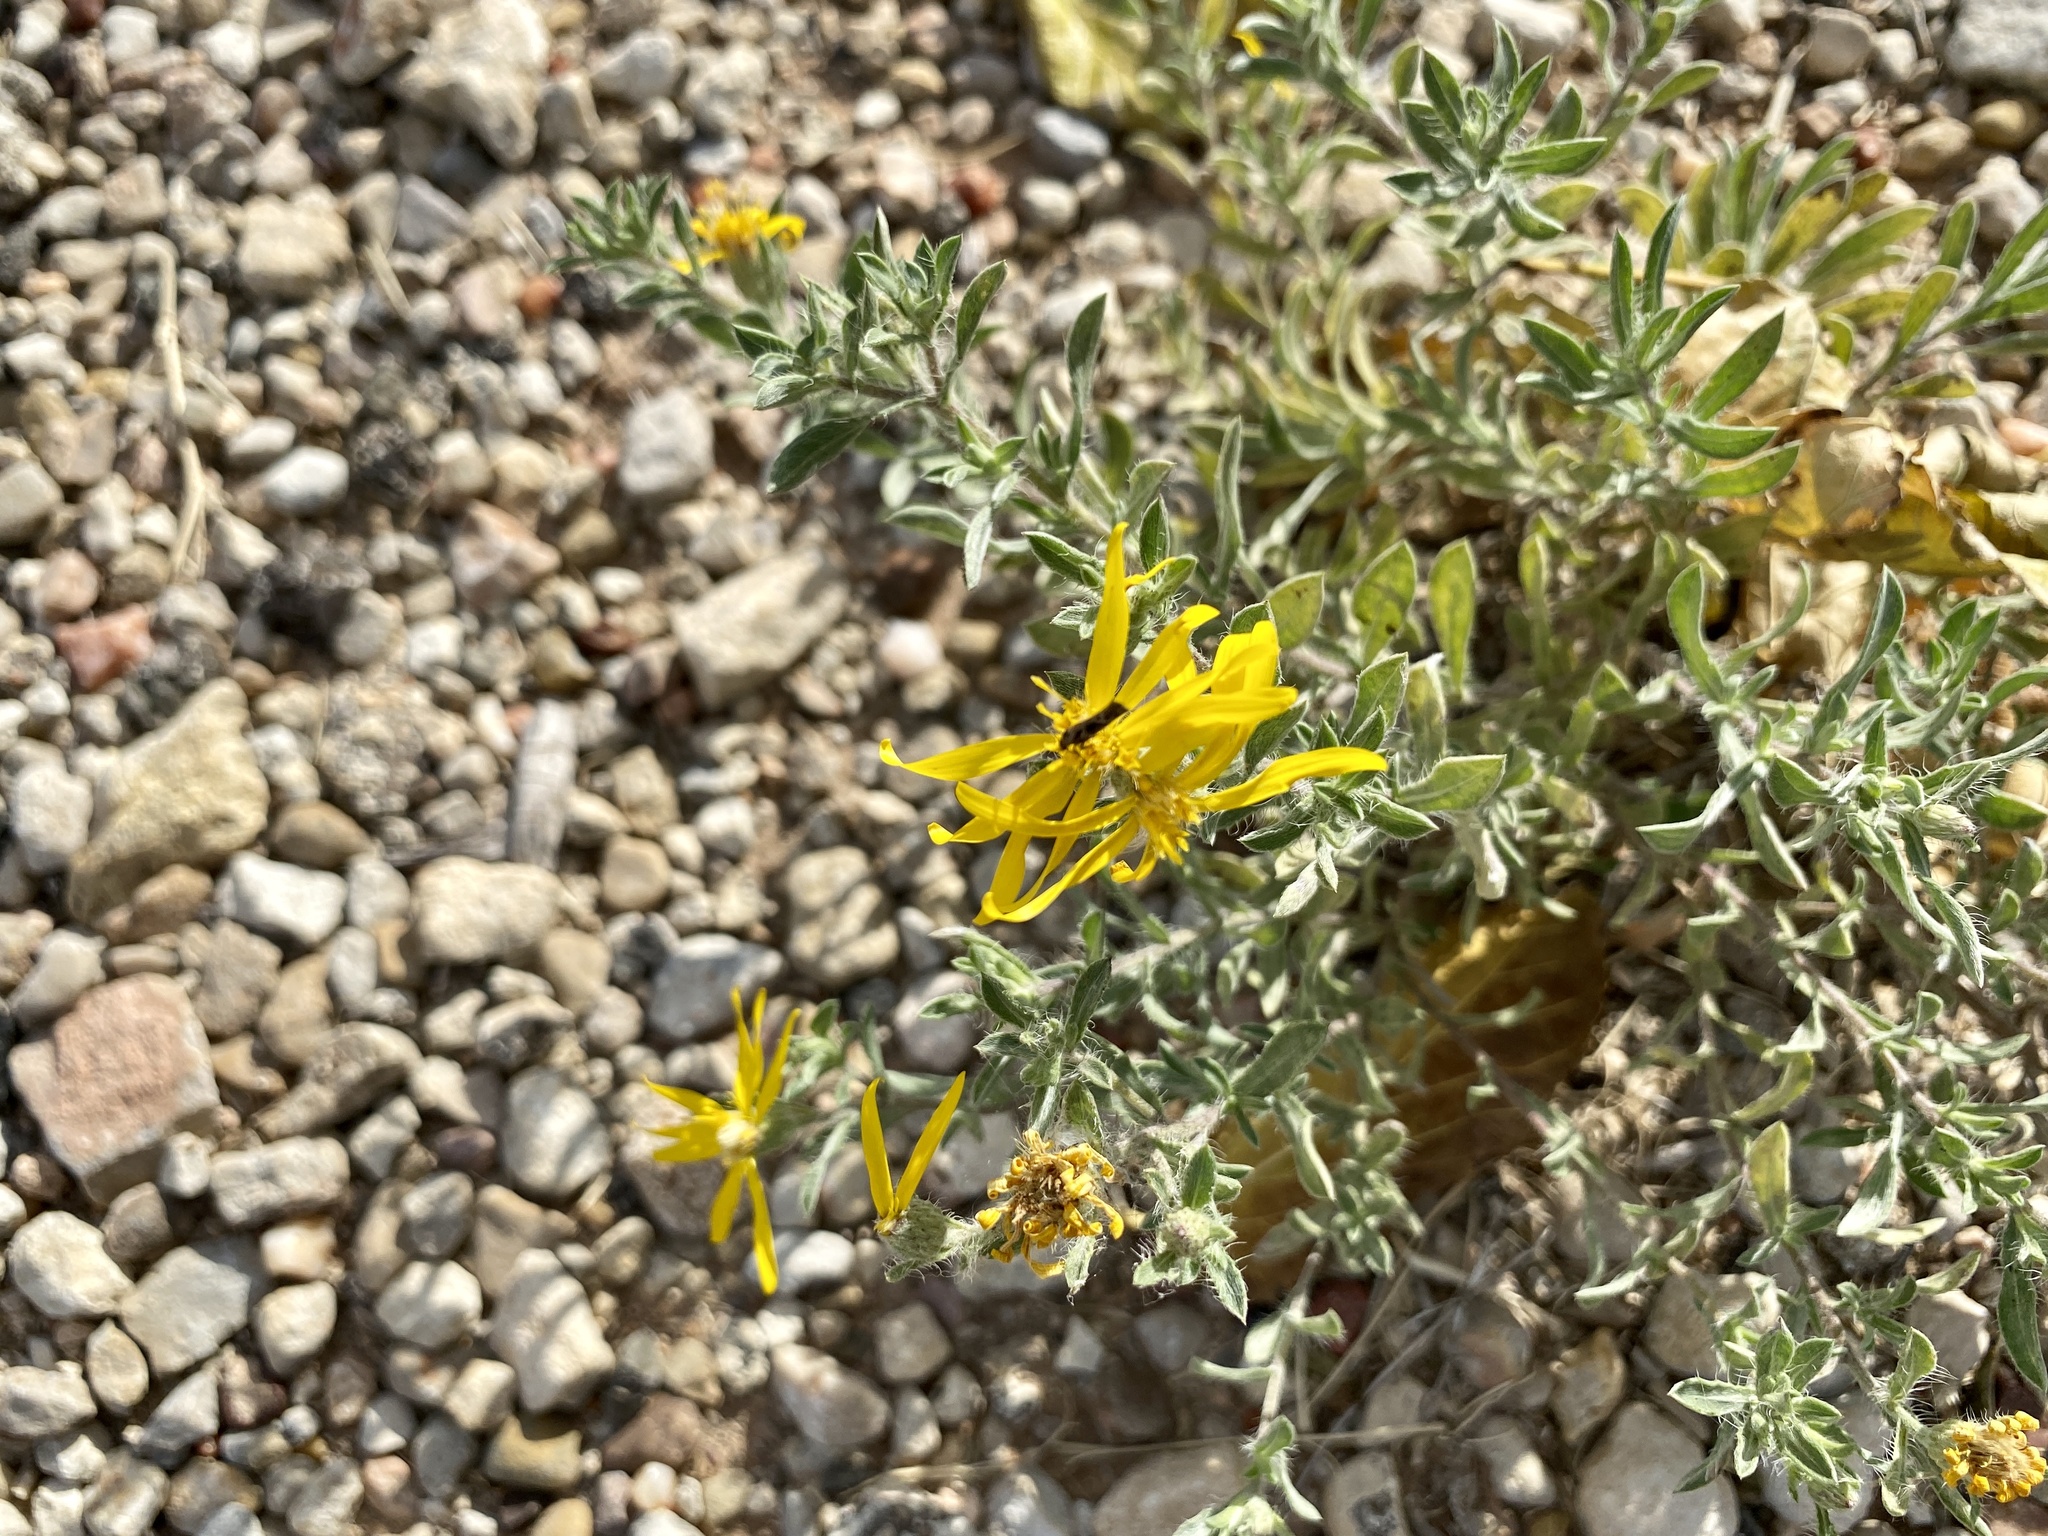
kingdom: Plantae
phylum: Tracheophyta
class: Magnoliopsida
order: Asterales
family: Asteraceae
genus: Heterotheca
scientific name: Heterotheca angustifolia
